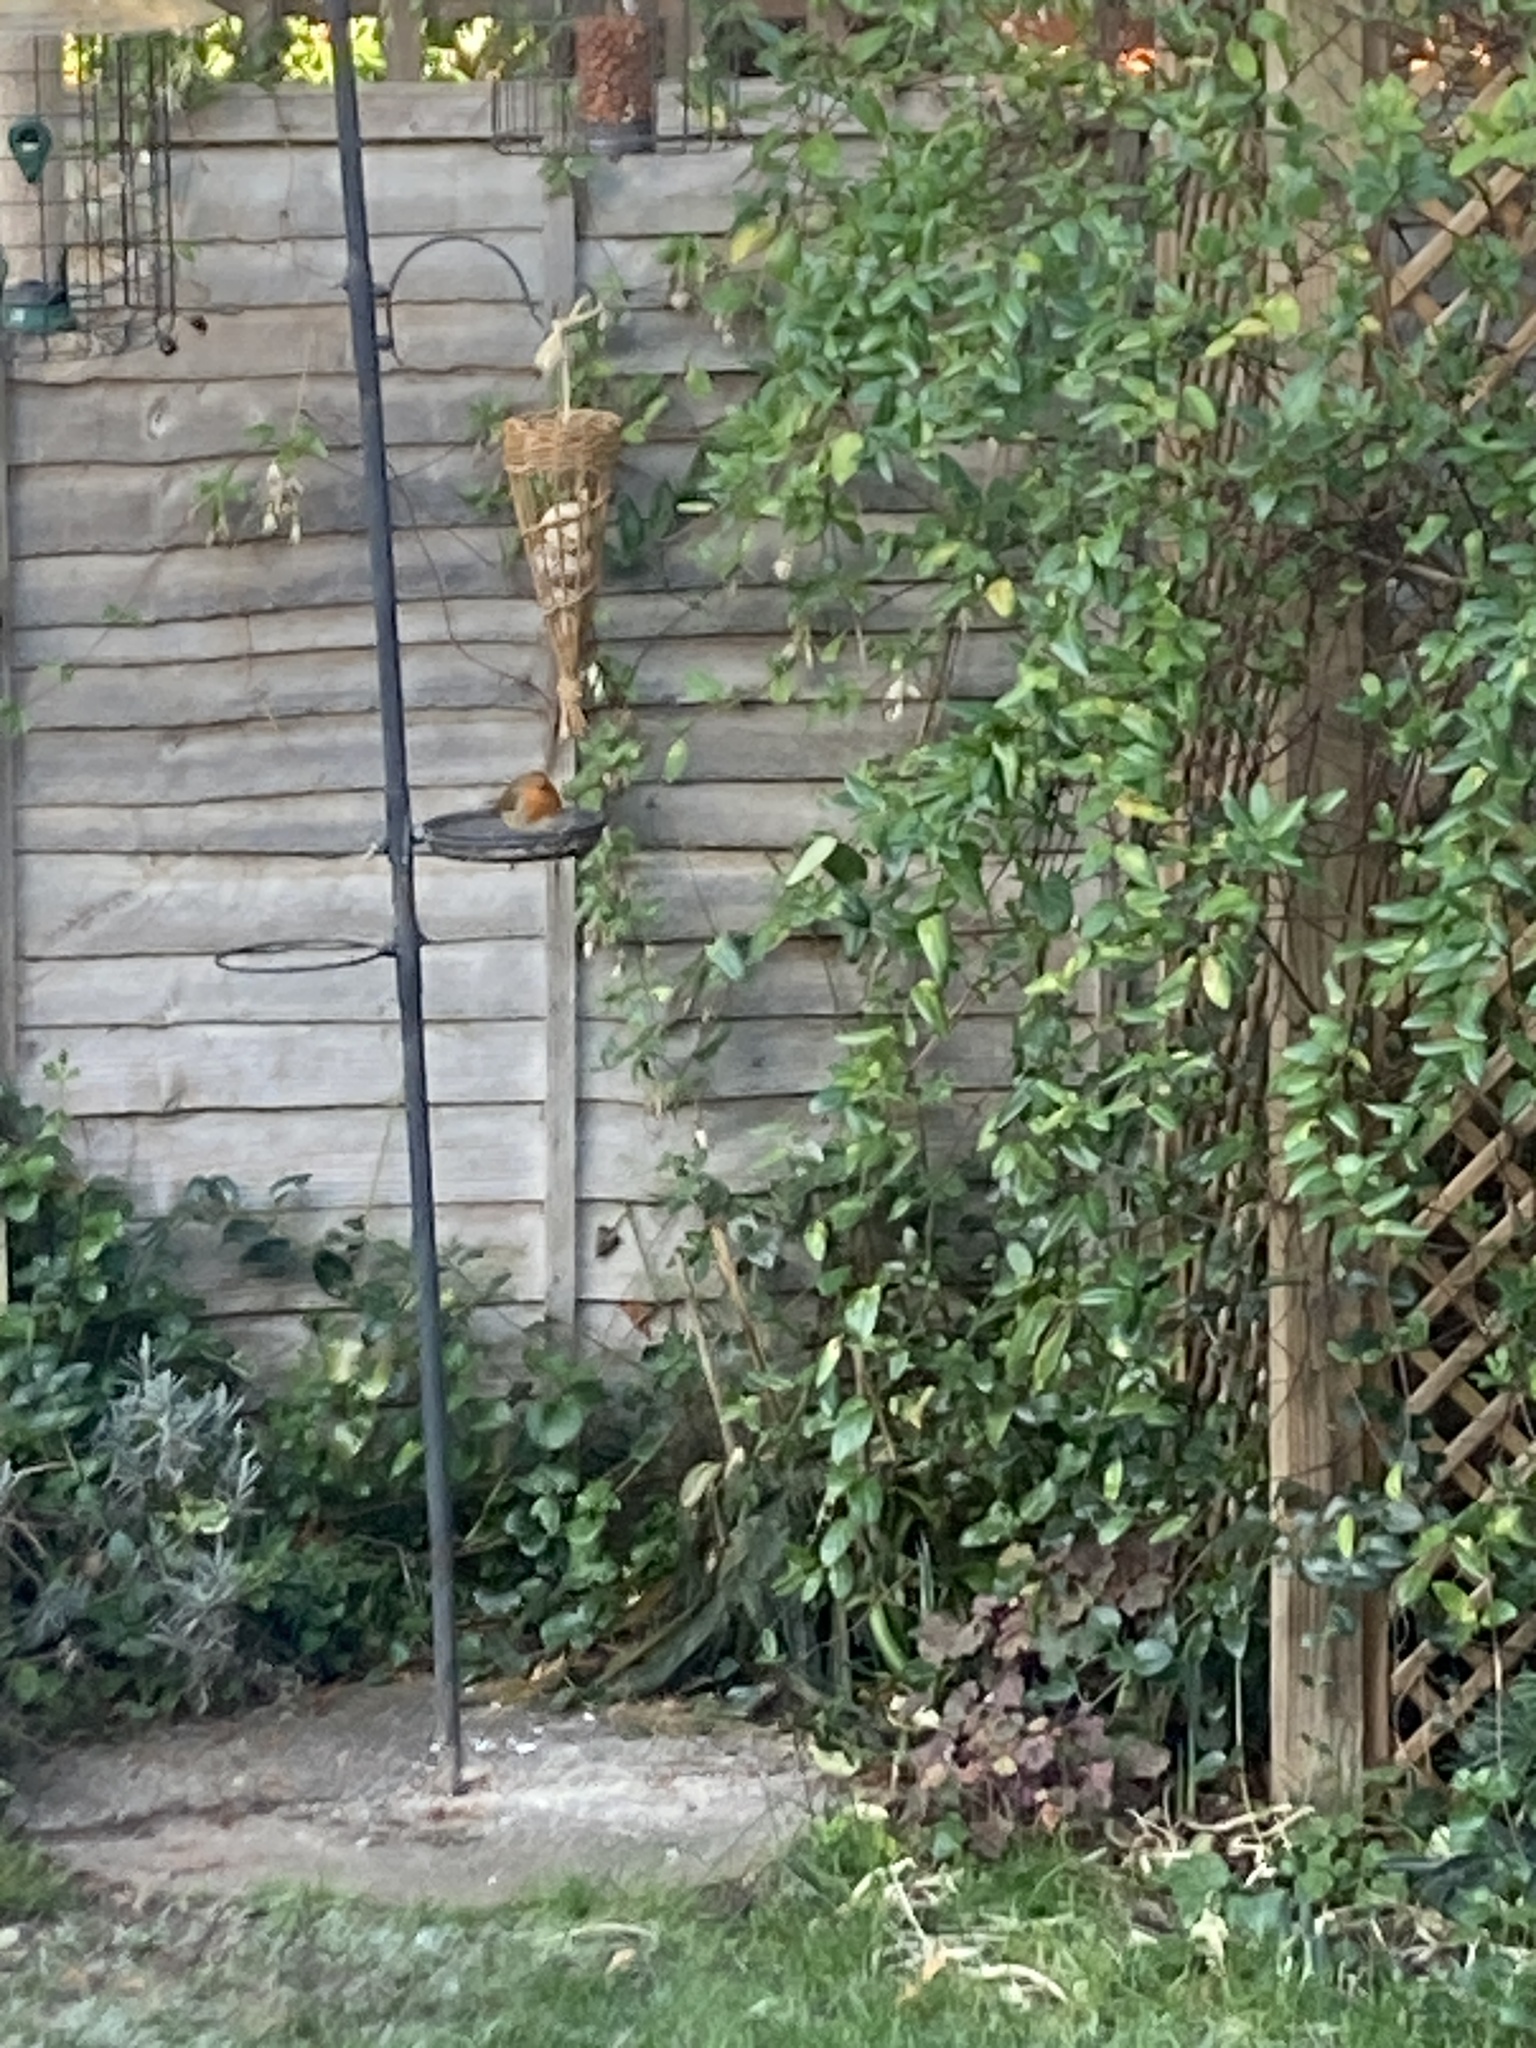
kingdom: Animalia
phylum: Chordata
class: Aves
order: Passeriformes
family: Muscicapidae
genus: Erithacus
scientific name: Erithacus rubecula
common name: European robin
